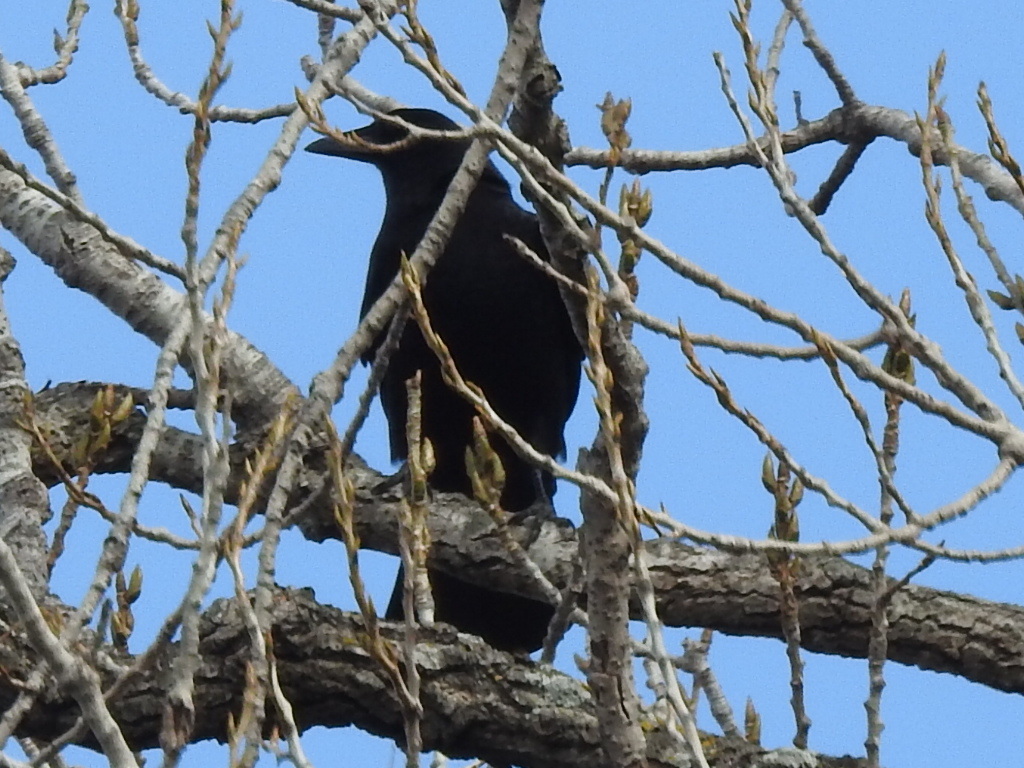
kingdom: Animalia
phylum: Chordata
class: Aves
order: Passeriformes
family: Corvidae
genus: Corvus
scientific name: Corvus brachyrhynchos
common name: American crow
